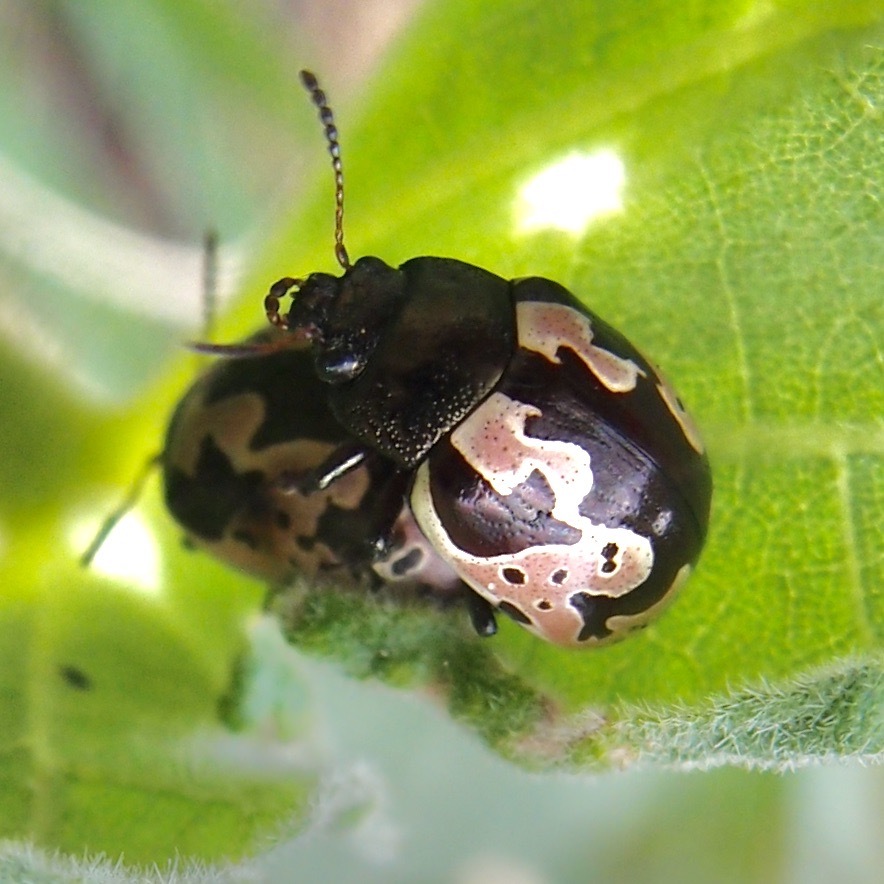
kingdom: Animalia
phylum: Arthropoda
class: Insecta
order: Coleoptera
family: Chrysomelidae
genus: Calligrapha
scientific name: Calligrapha ancoralis
